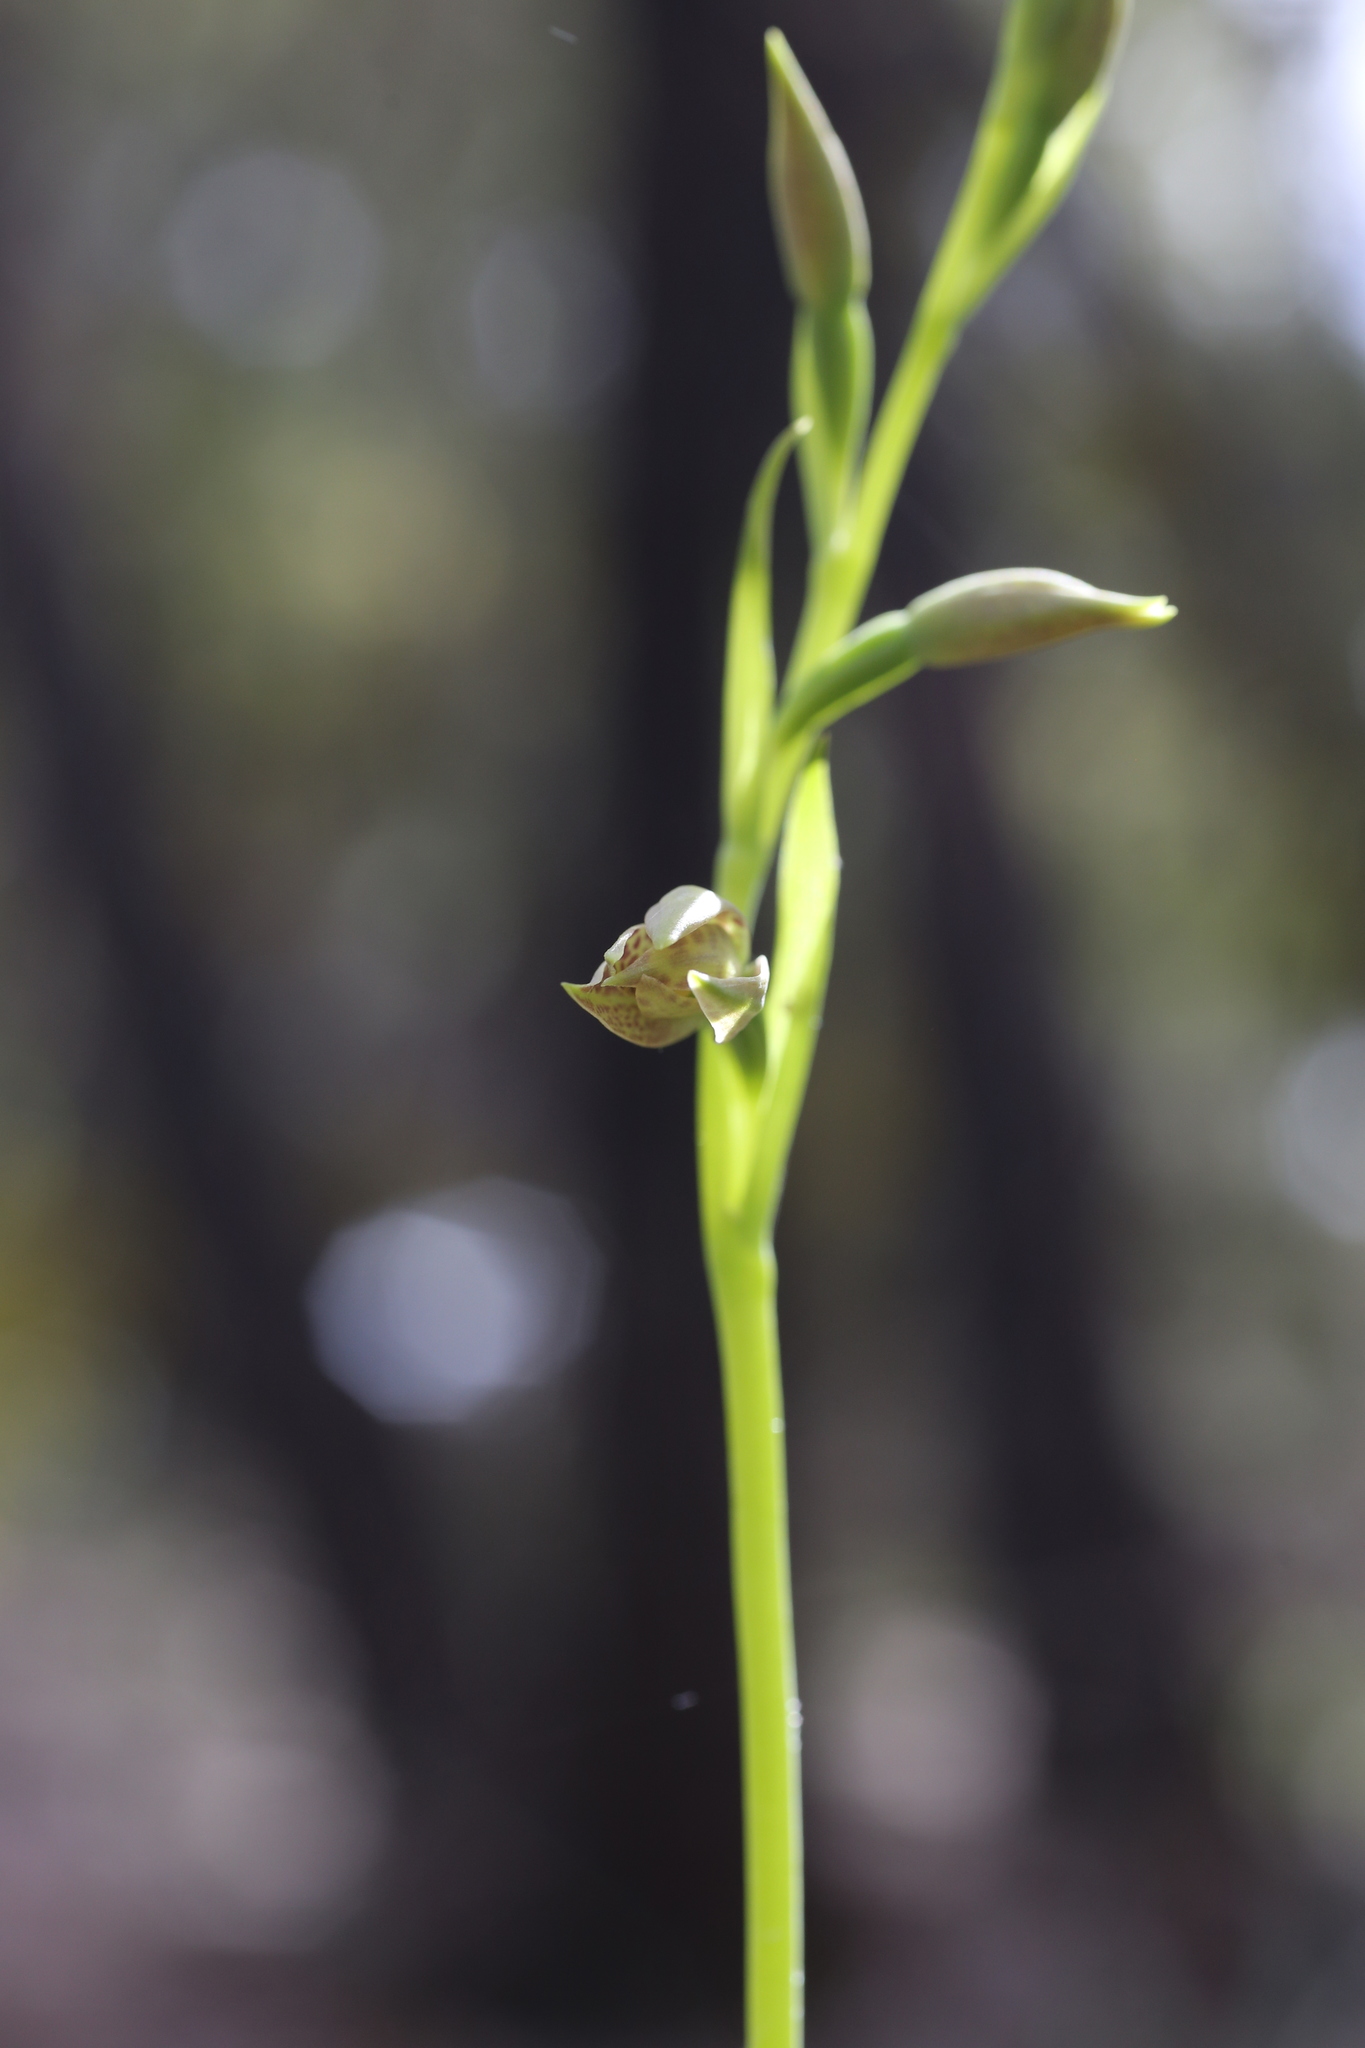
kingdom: Plantae
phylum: Tracheophyta
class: Liliopsida
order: Asparagales
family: Orchidaceae
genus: Thelymitra
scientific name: Thelymitra benthamiana
